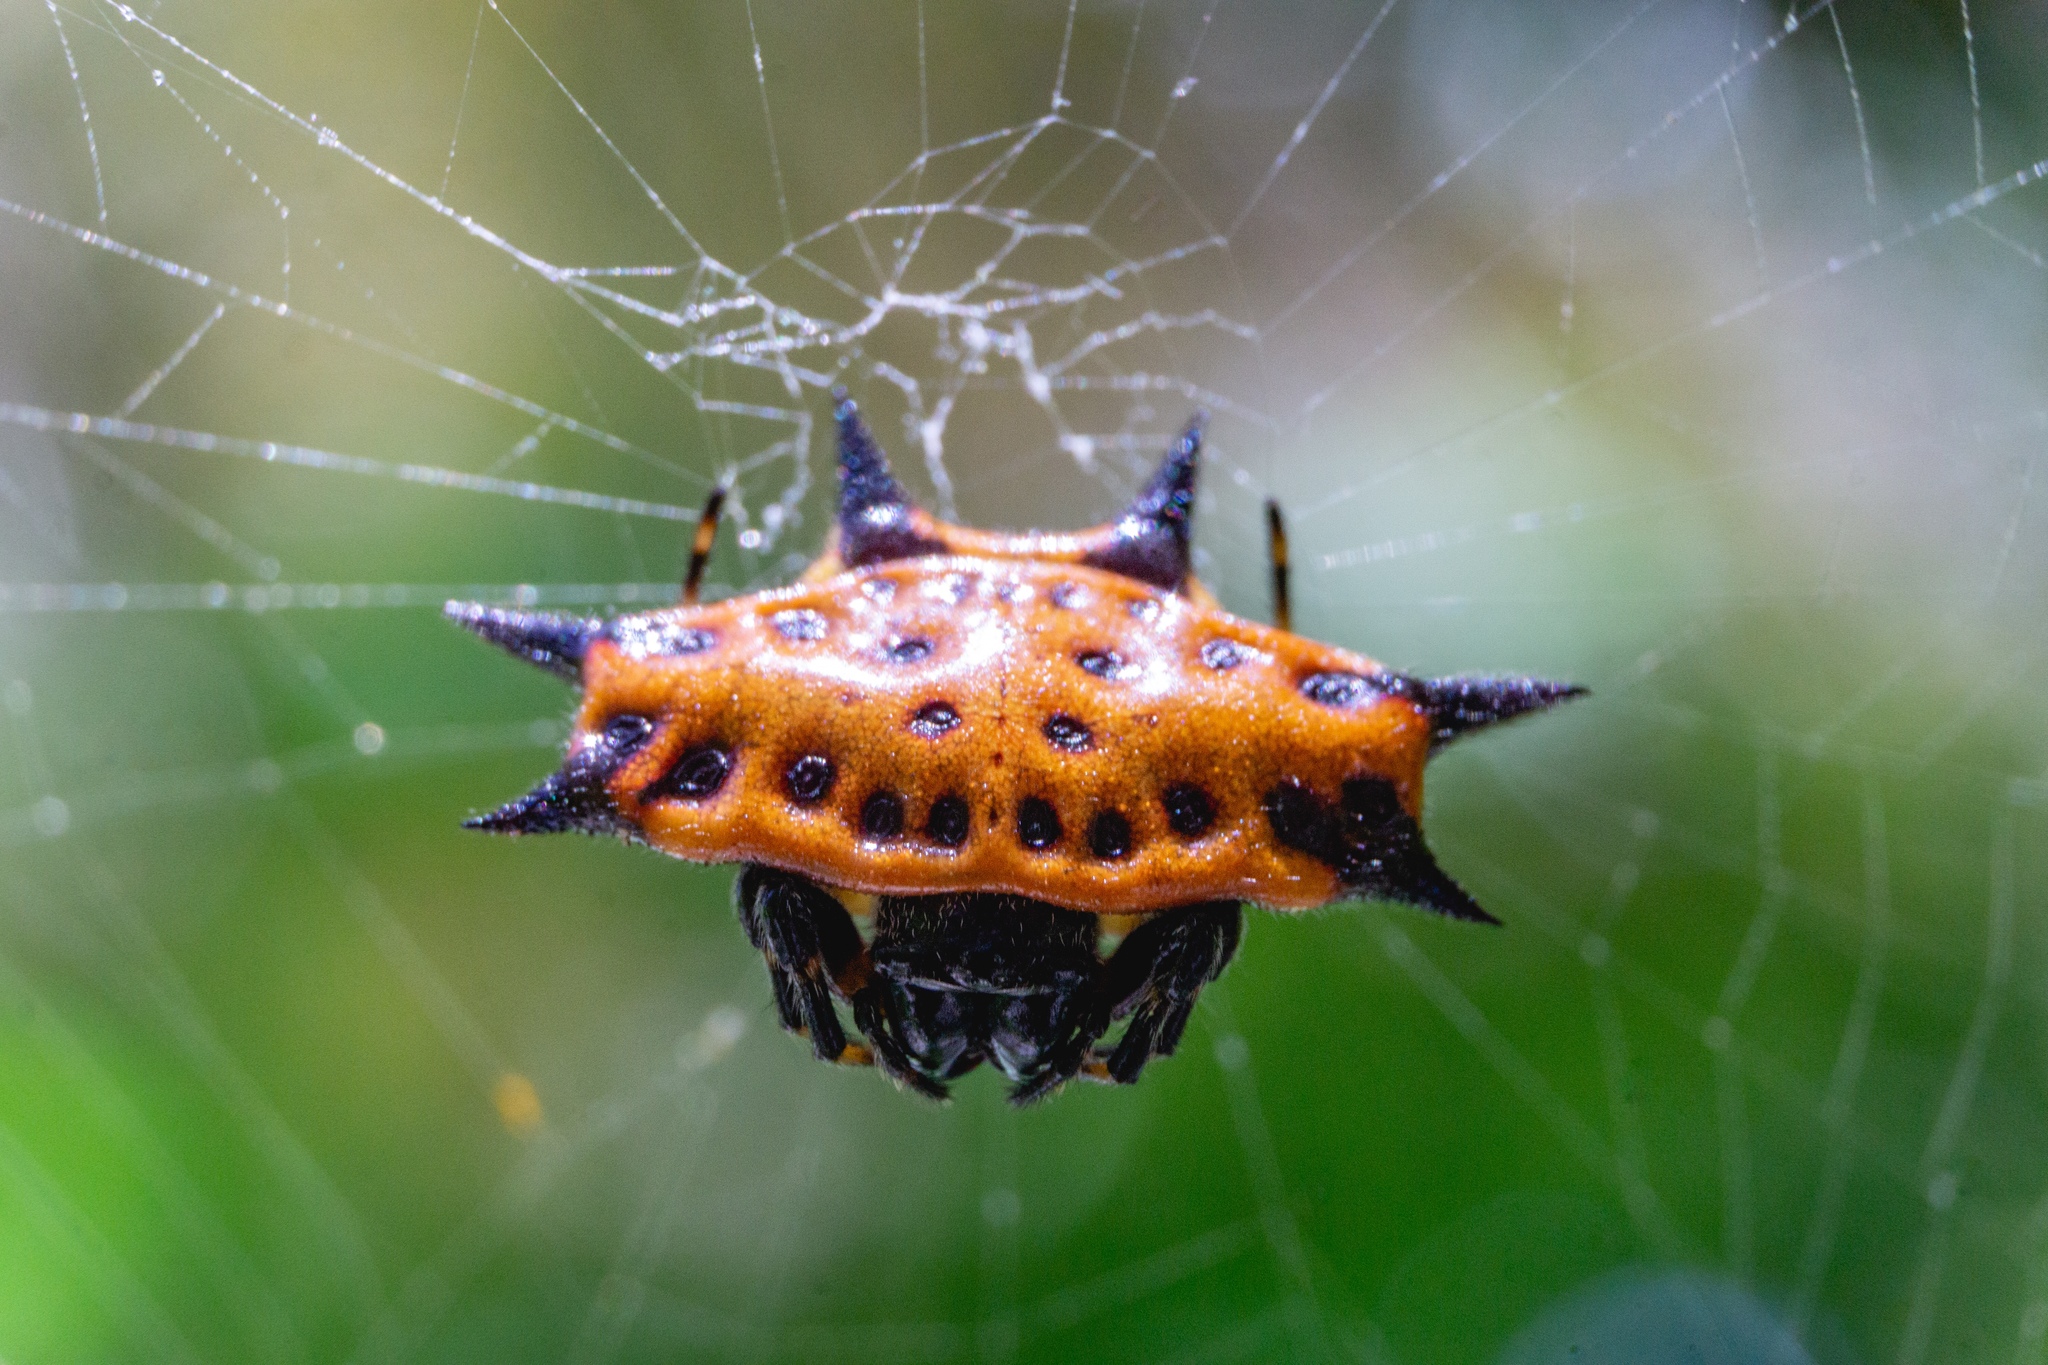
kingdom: Animalia
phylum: Arthropoda
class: Arachnida
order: Araneae
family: Araneidae
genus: Gasteracantha
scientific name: Gasteracantha cancriformis
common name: Orb weavers
